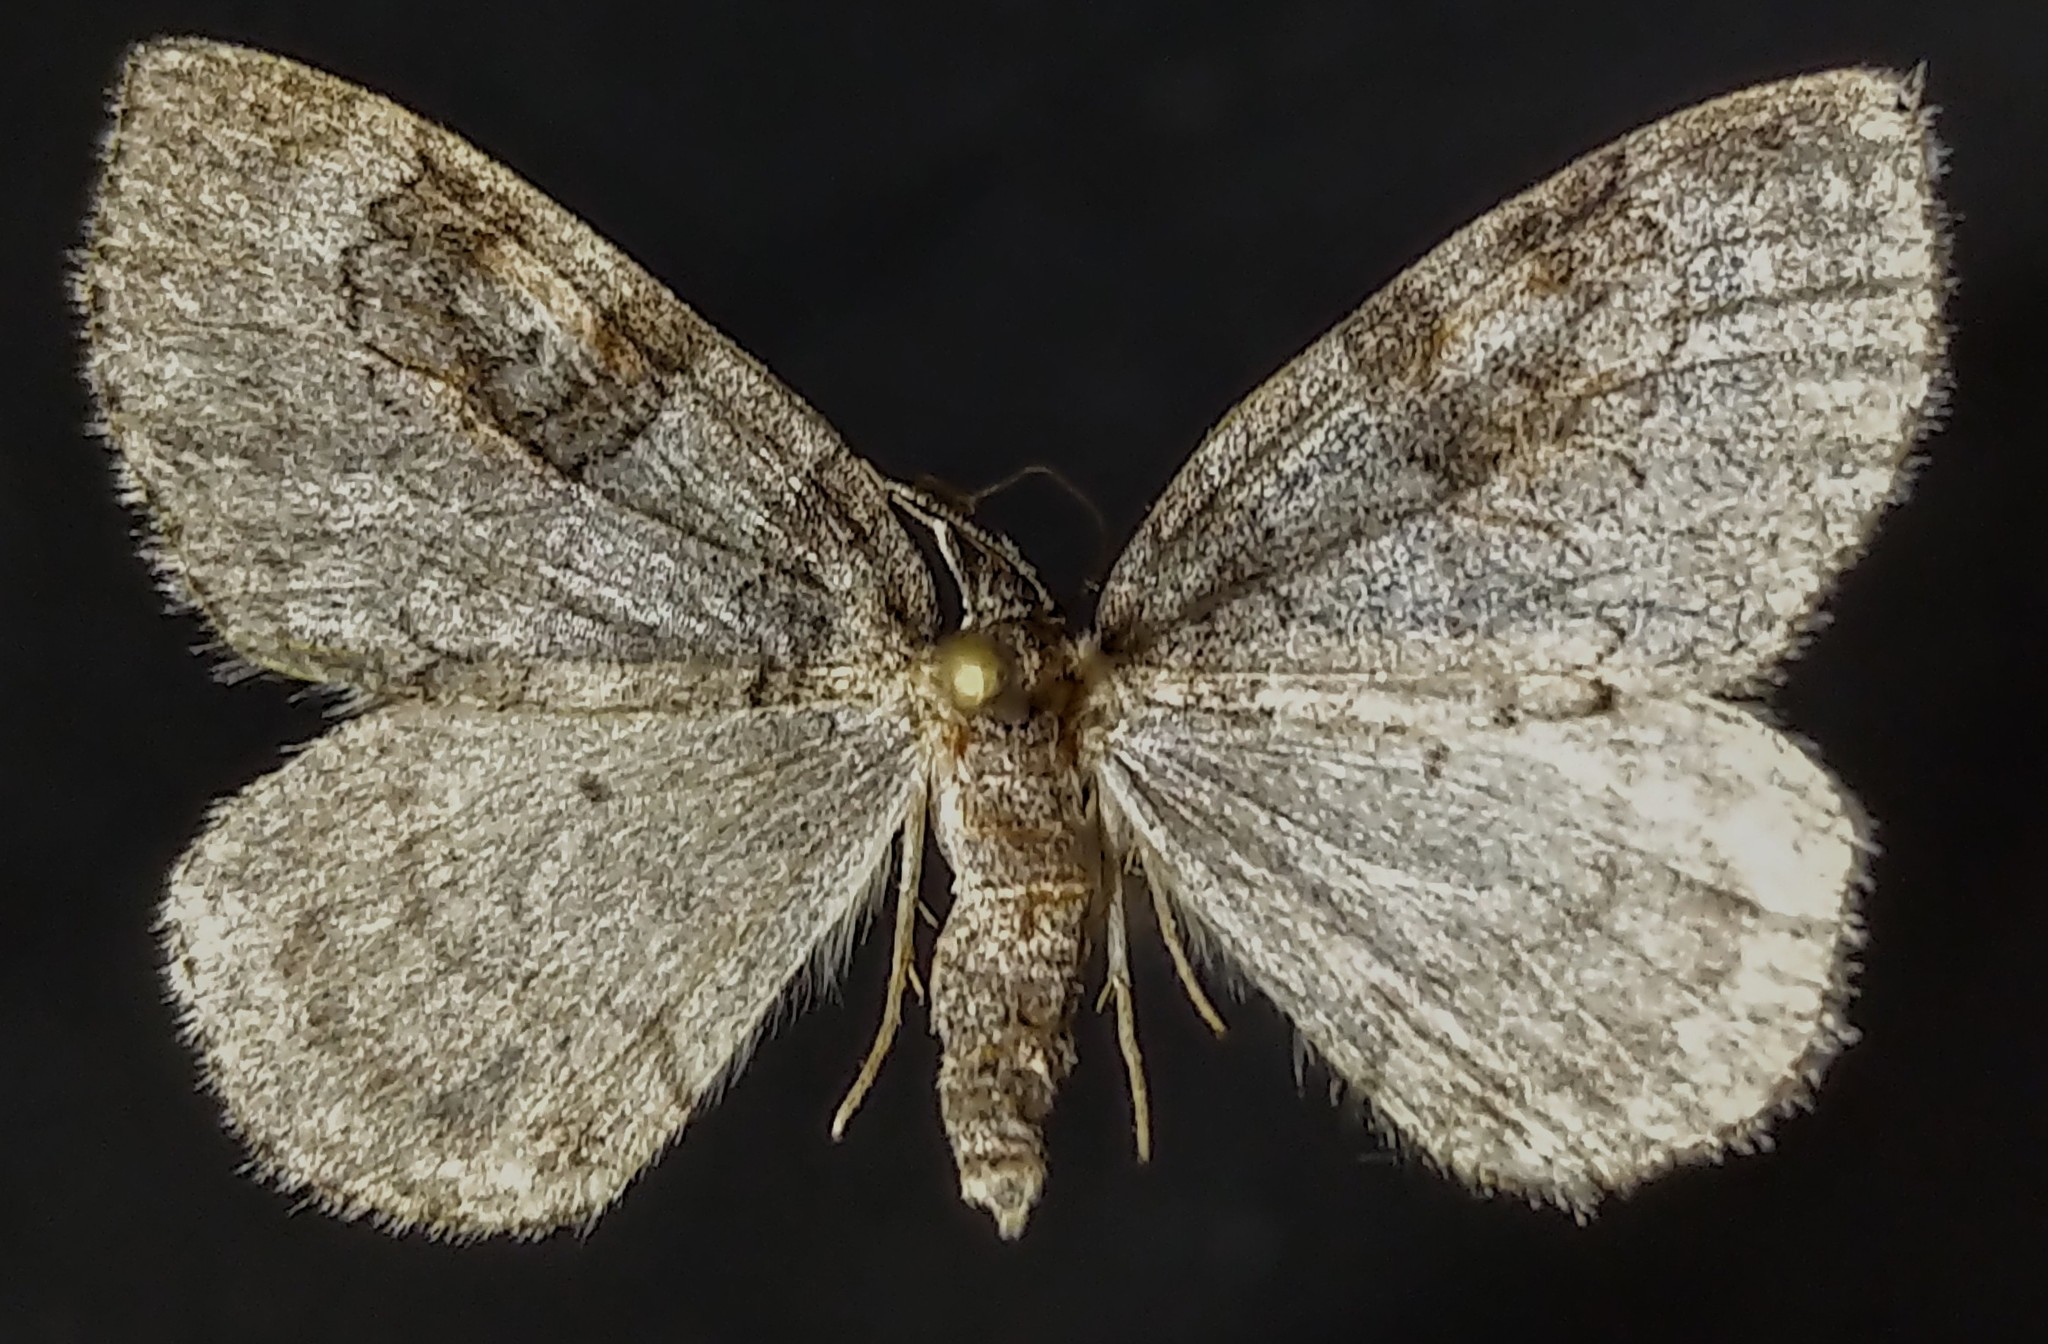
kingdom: Animalia
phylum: Arthropoda
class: Insecta
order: Lepidoptera
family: Geometridae
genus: Plemyria
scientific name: Plemyria georgii
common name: George's carpet moth
